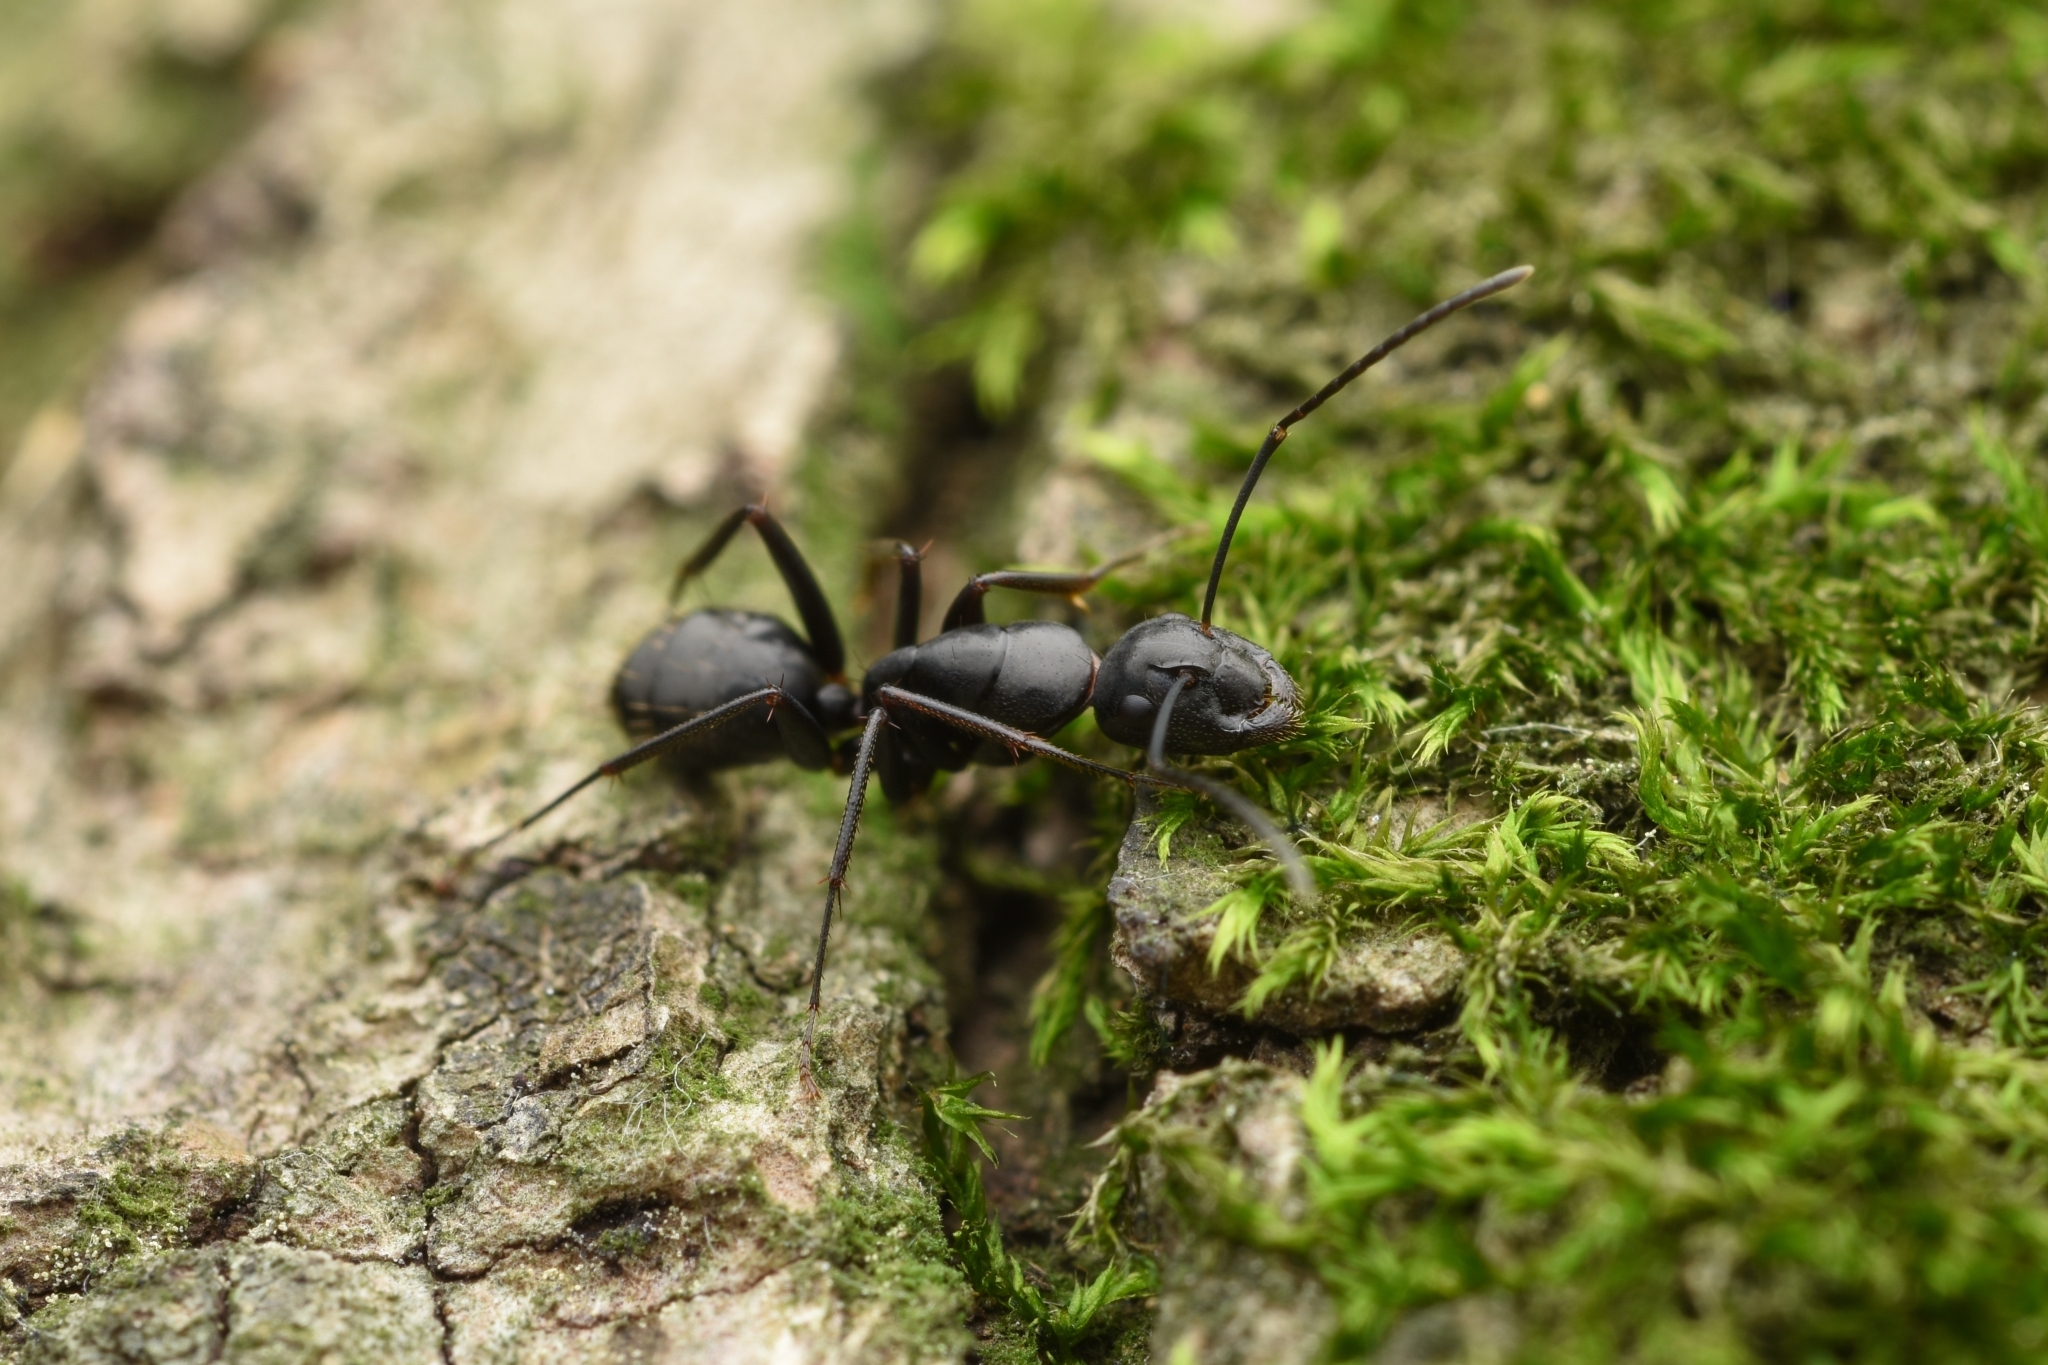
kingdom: Animalia
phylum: Arthropoda
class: Insecta
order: Hymenoptera
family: Formicidae
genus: Camponotus
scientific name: Camponotus concavus
